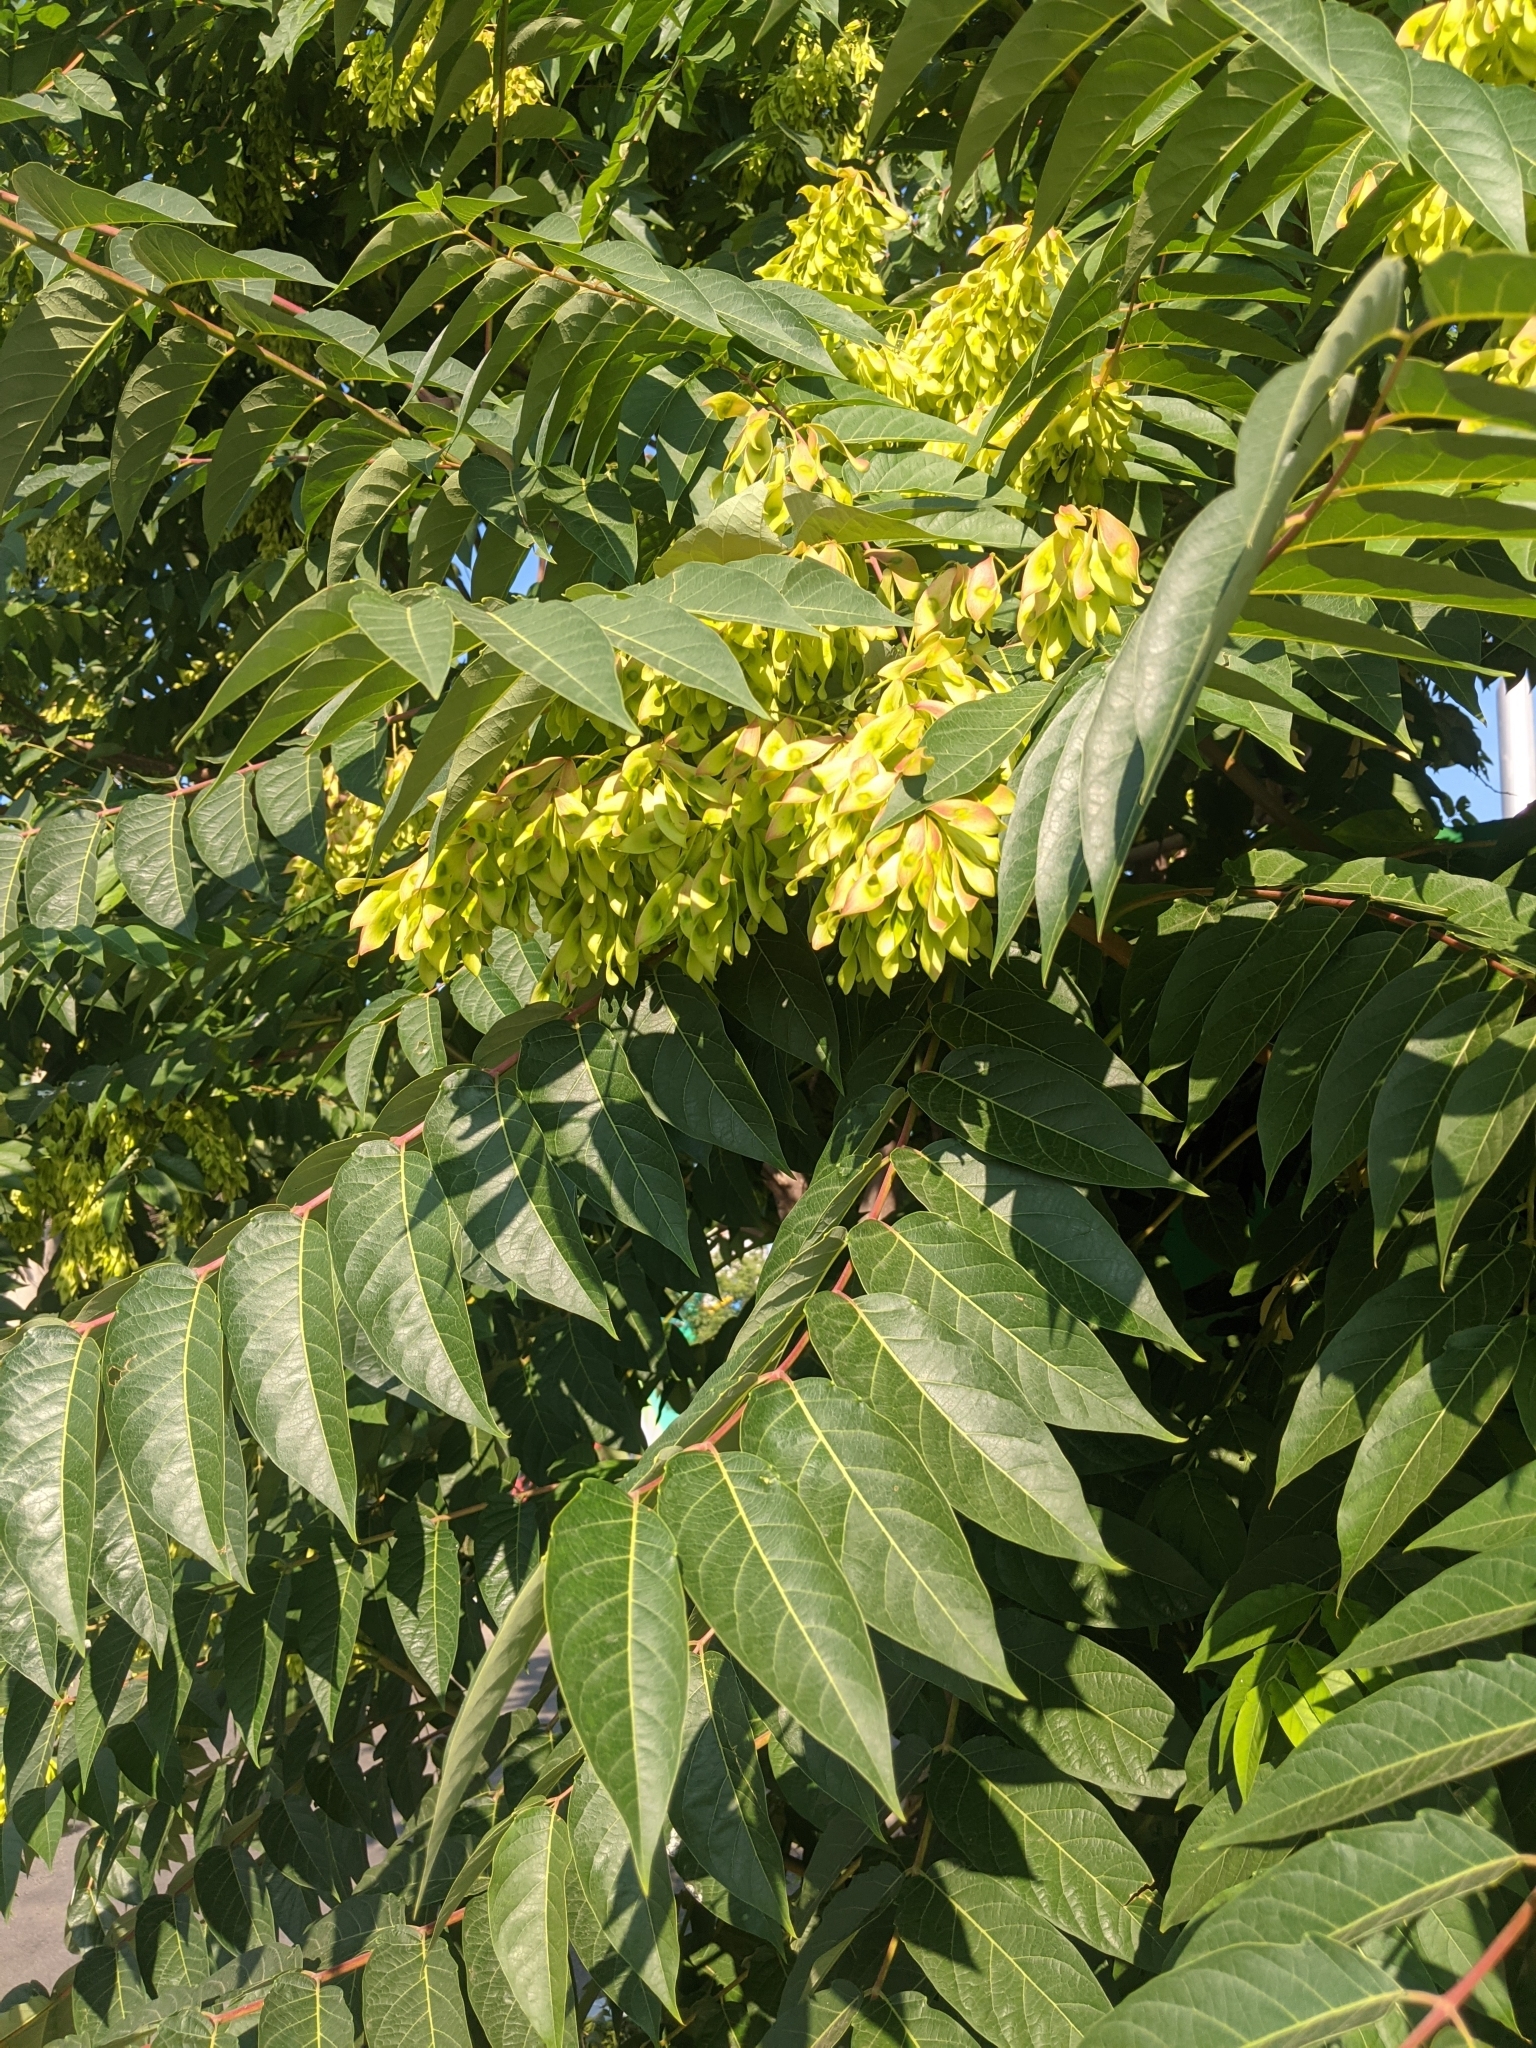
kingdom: Plantae
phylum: Tracheophyta
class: Magnoliopsida
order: Sapindales
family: Simaroubaceae
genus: Ailanthus
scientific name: Ailanthus altissima
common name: Tree-of-heaven
